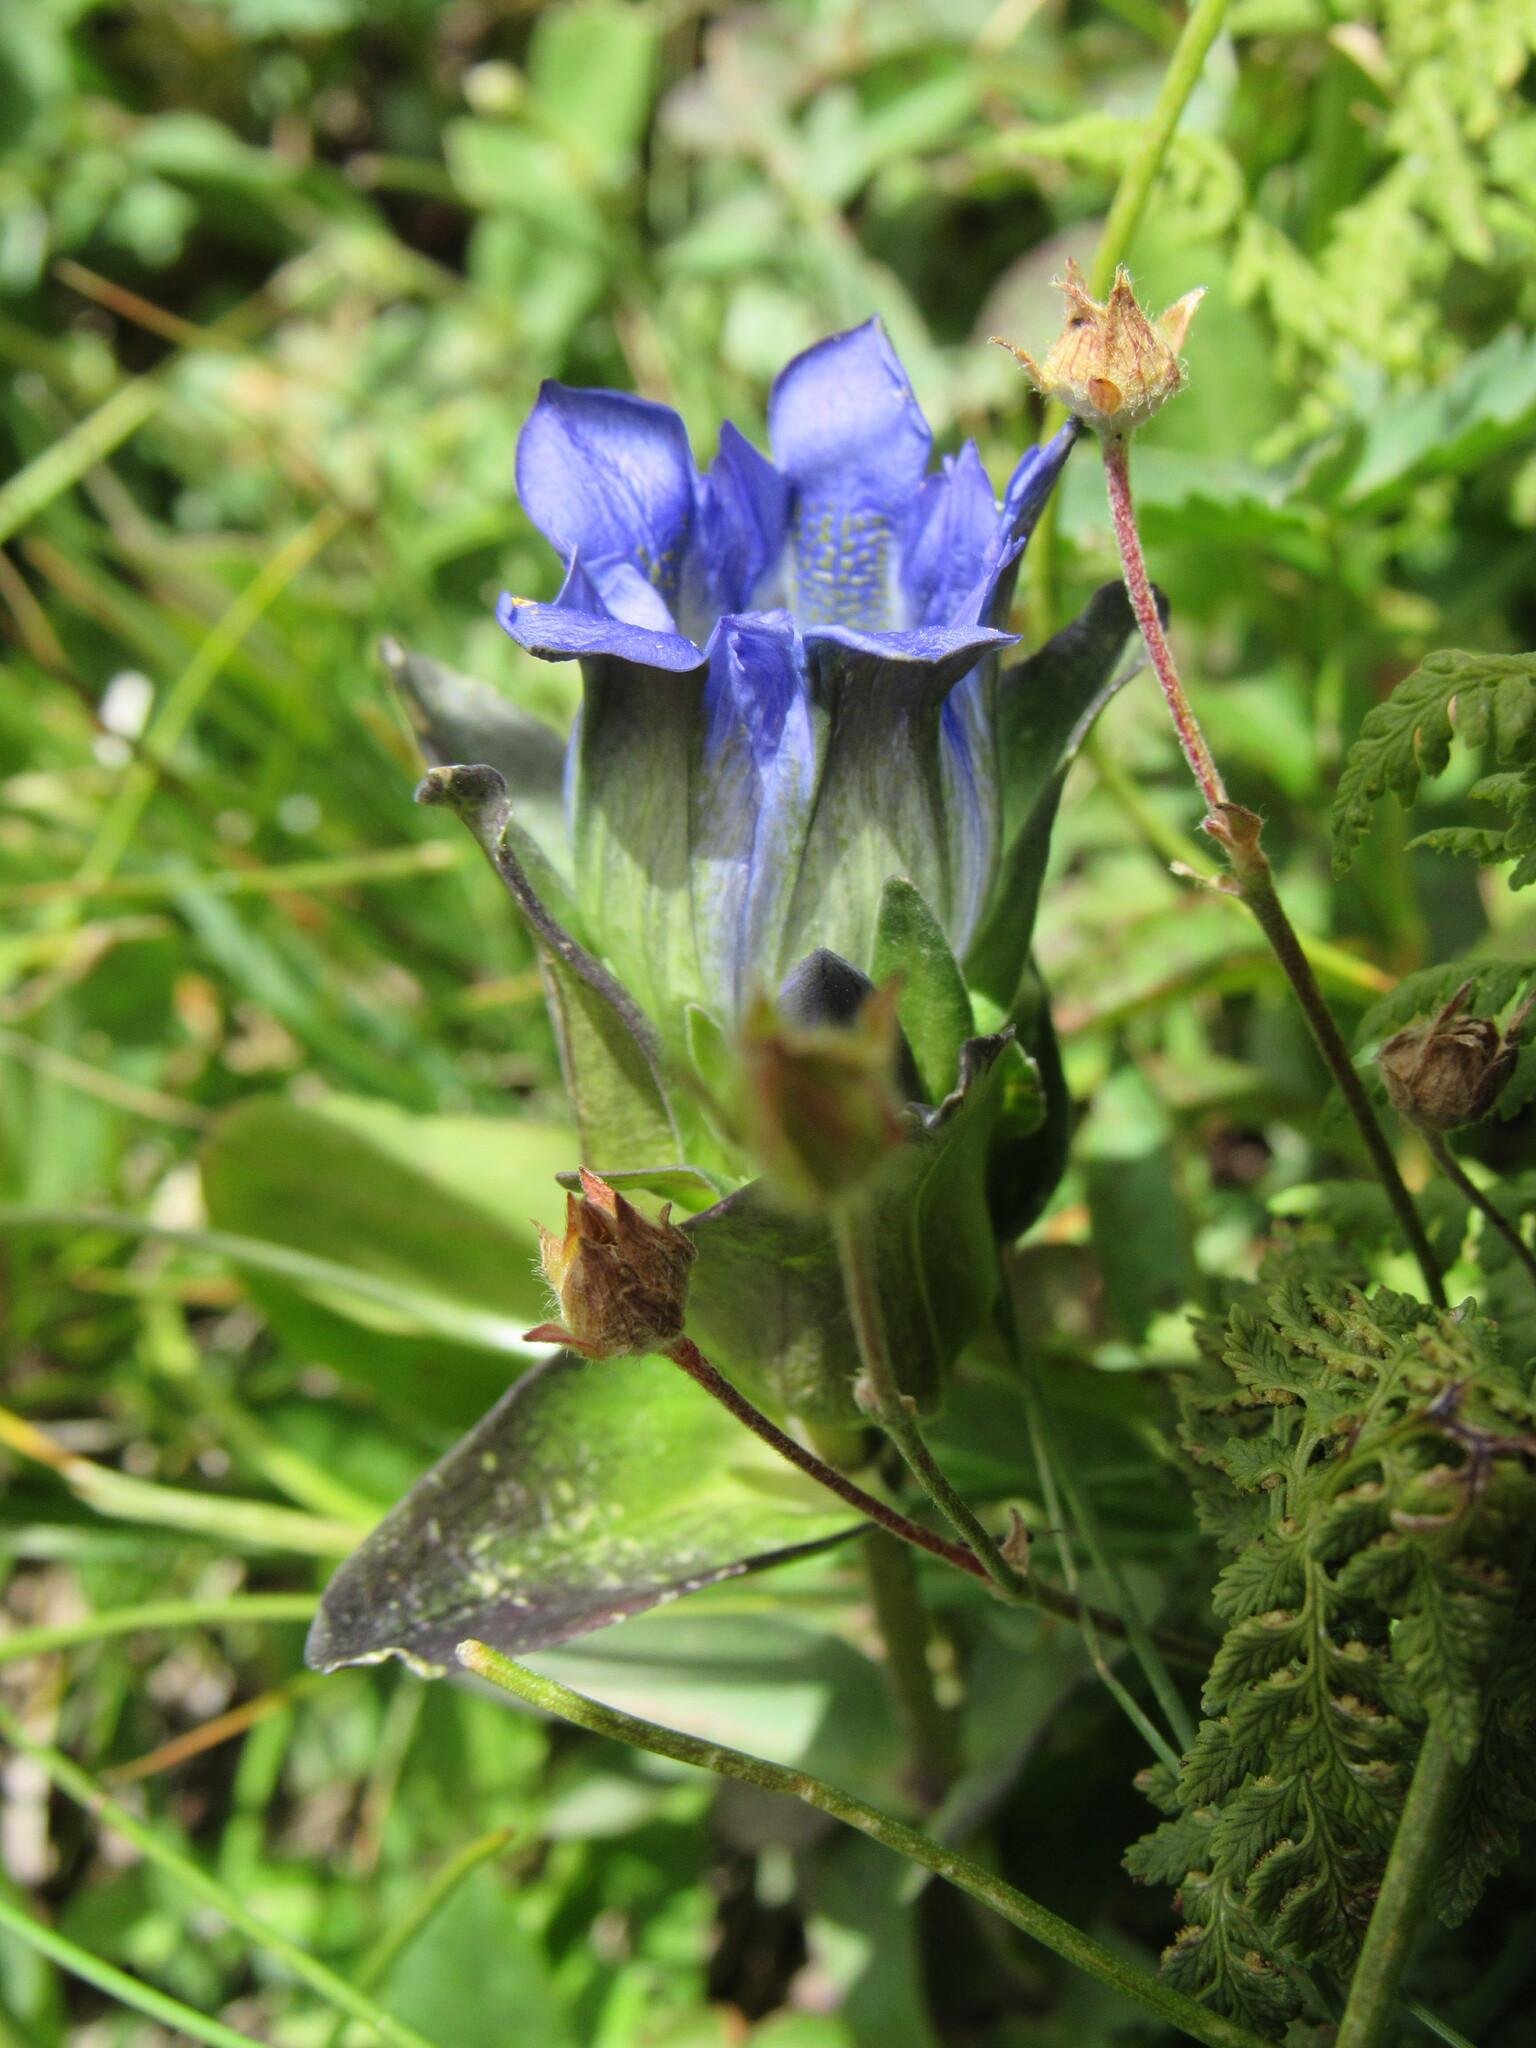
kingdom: Plantae
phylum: Tracheophyta
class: Magnoliopsida
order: Gentianales
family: Gentianaceae
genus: Gentiana
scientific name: Gentiana parryi
